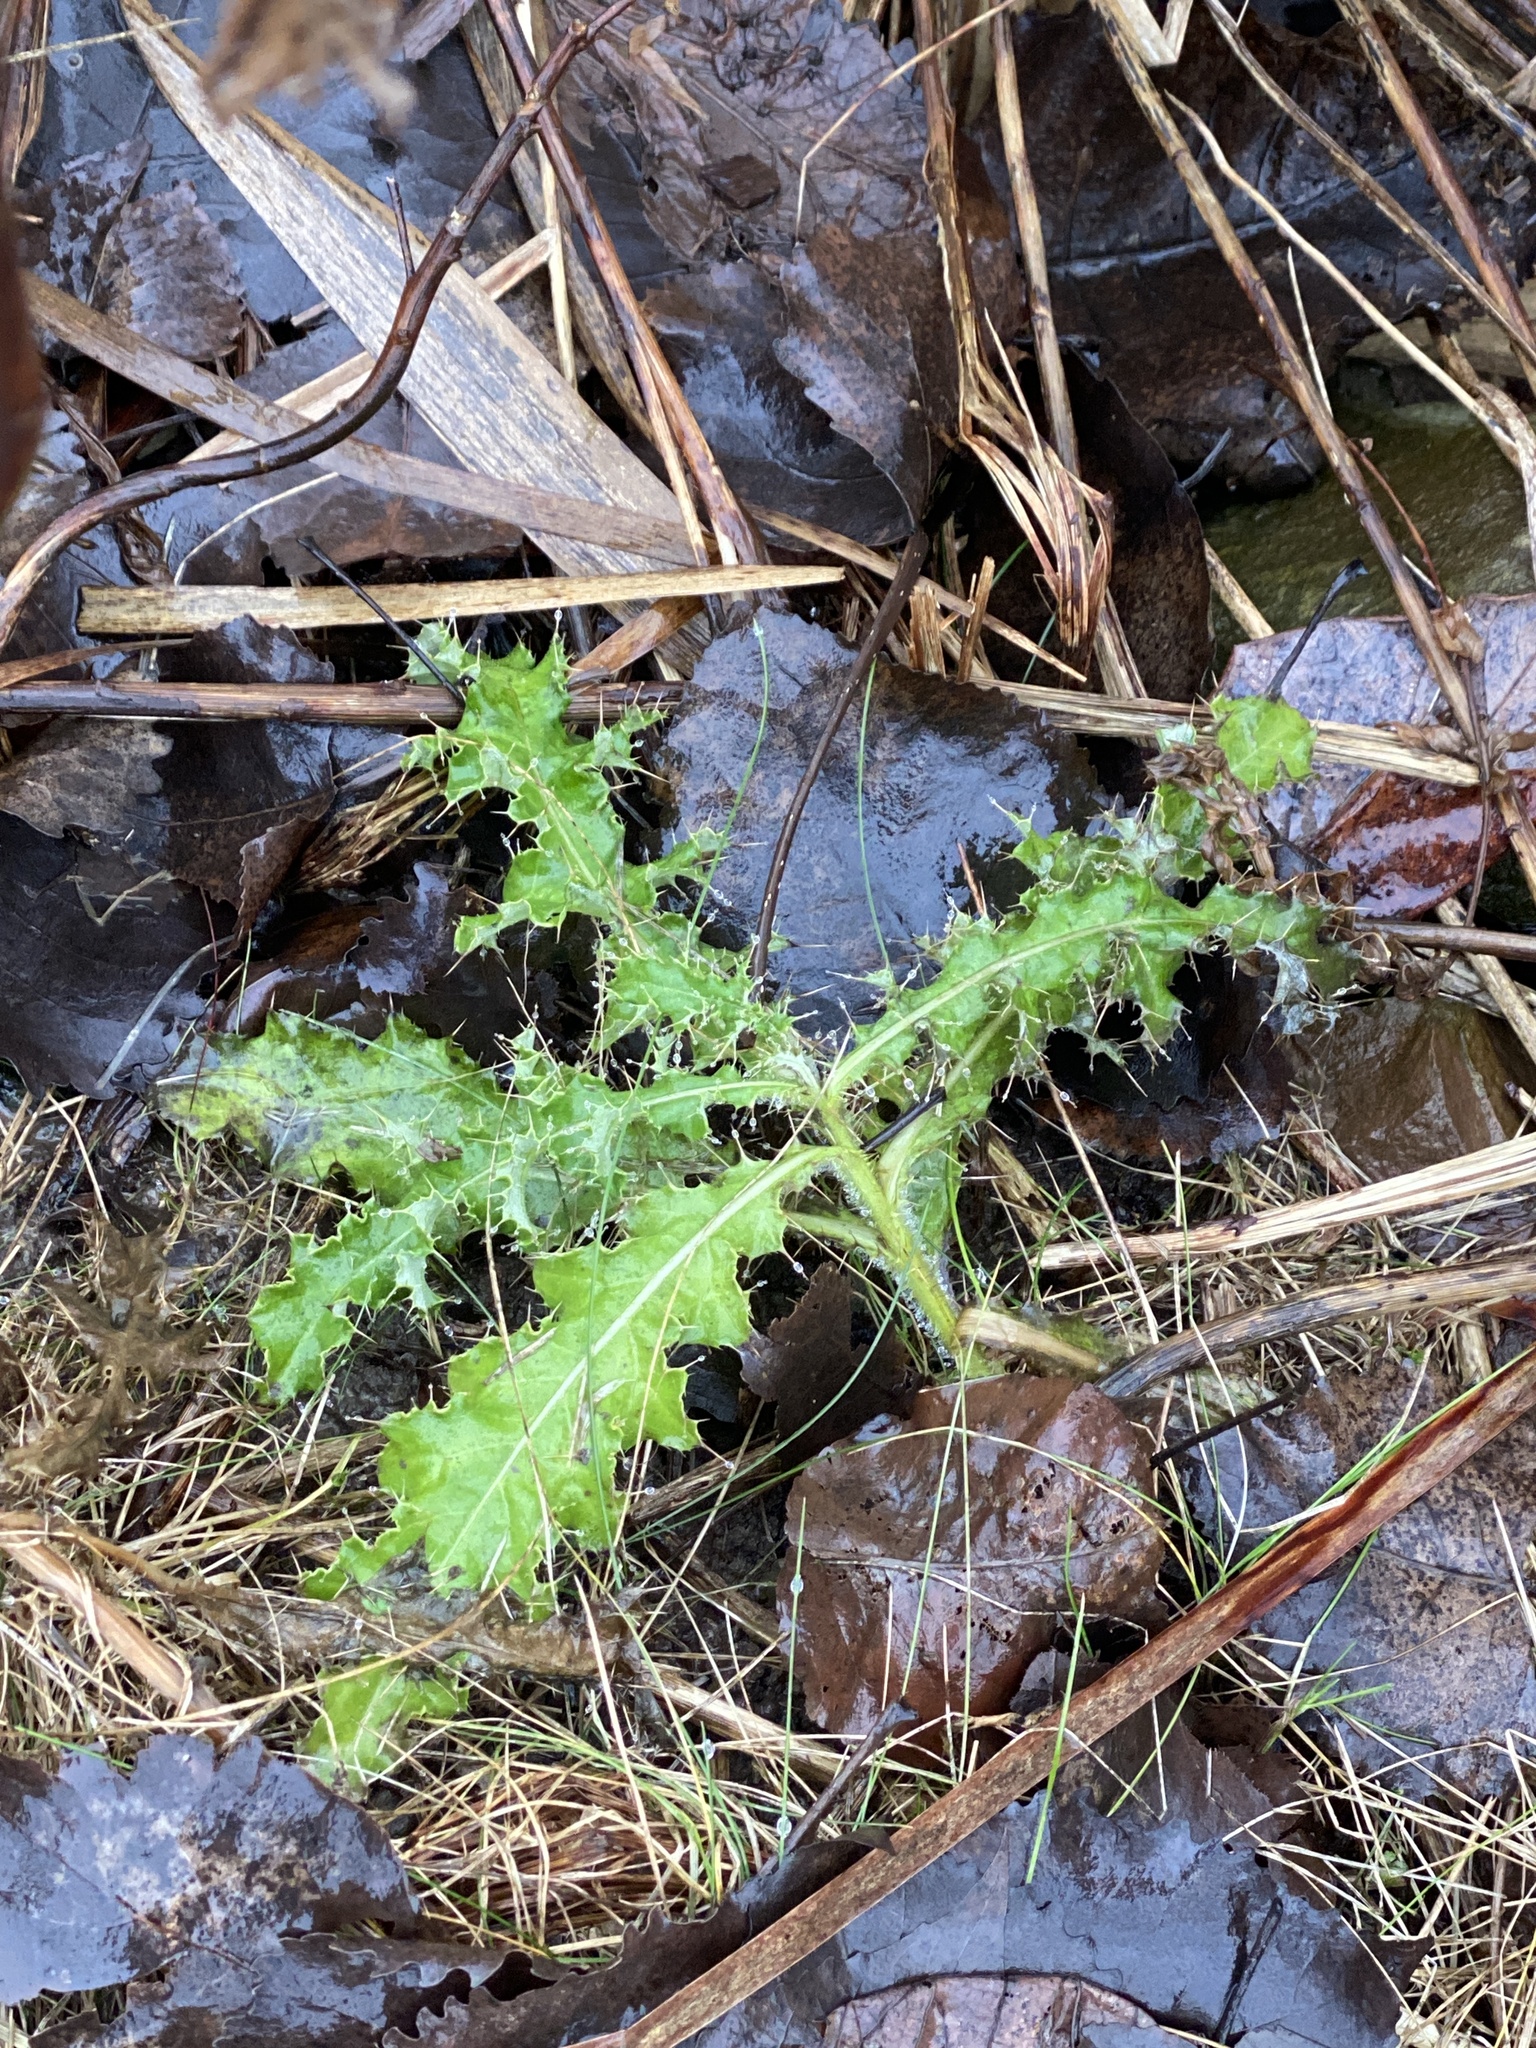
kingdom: Plantae
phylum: Tracheophyta
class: Magnoliopsida
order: Asterales
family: Asteraceae
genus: Cirsium
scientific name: Cirsium arvense
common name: Creeping thistle
